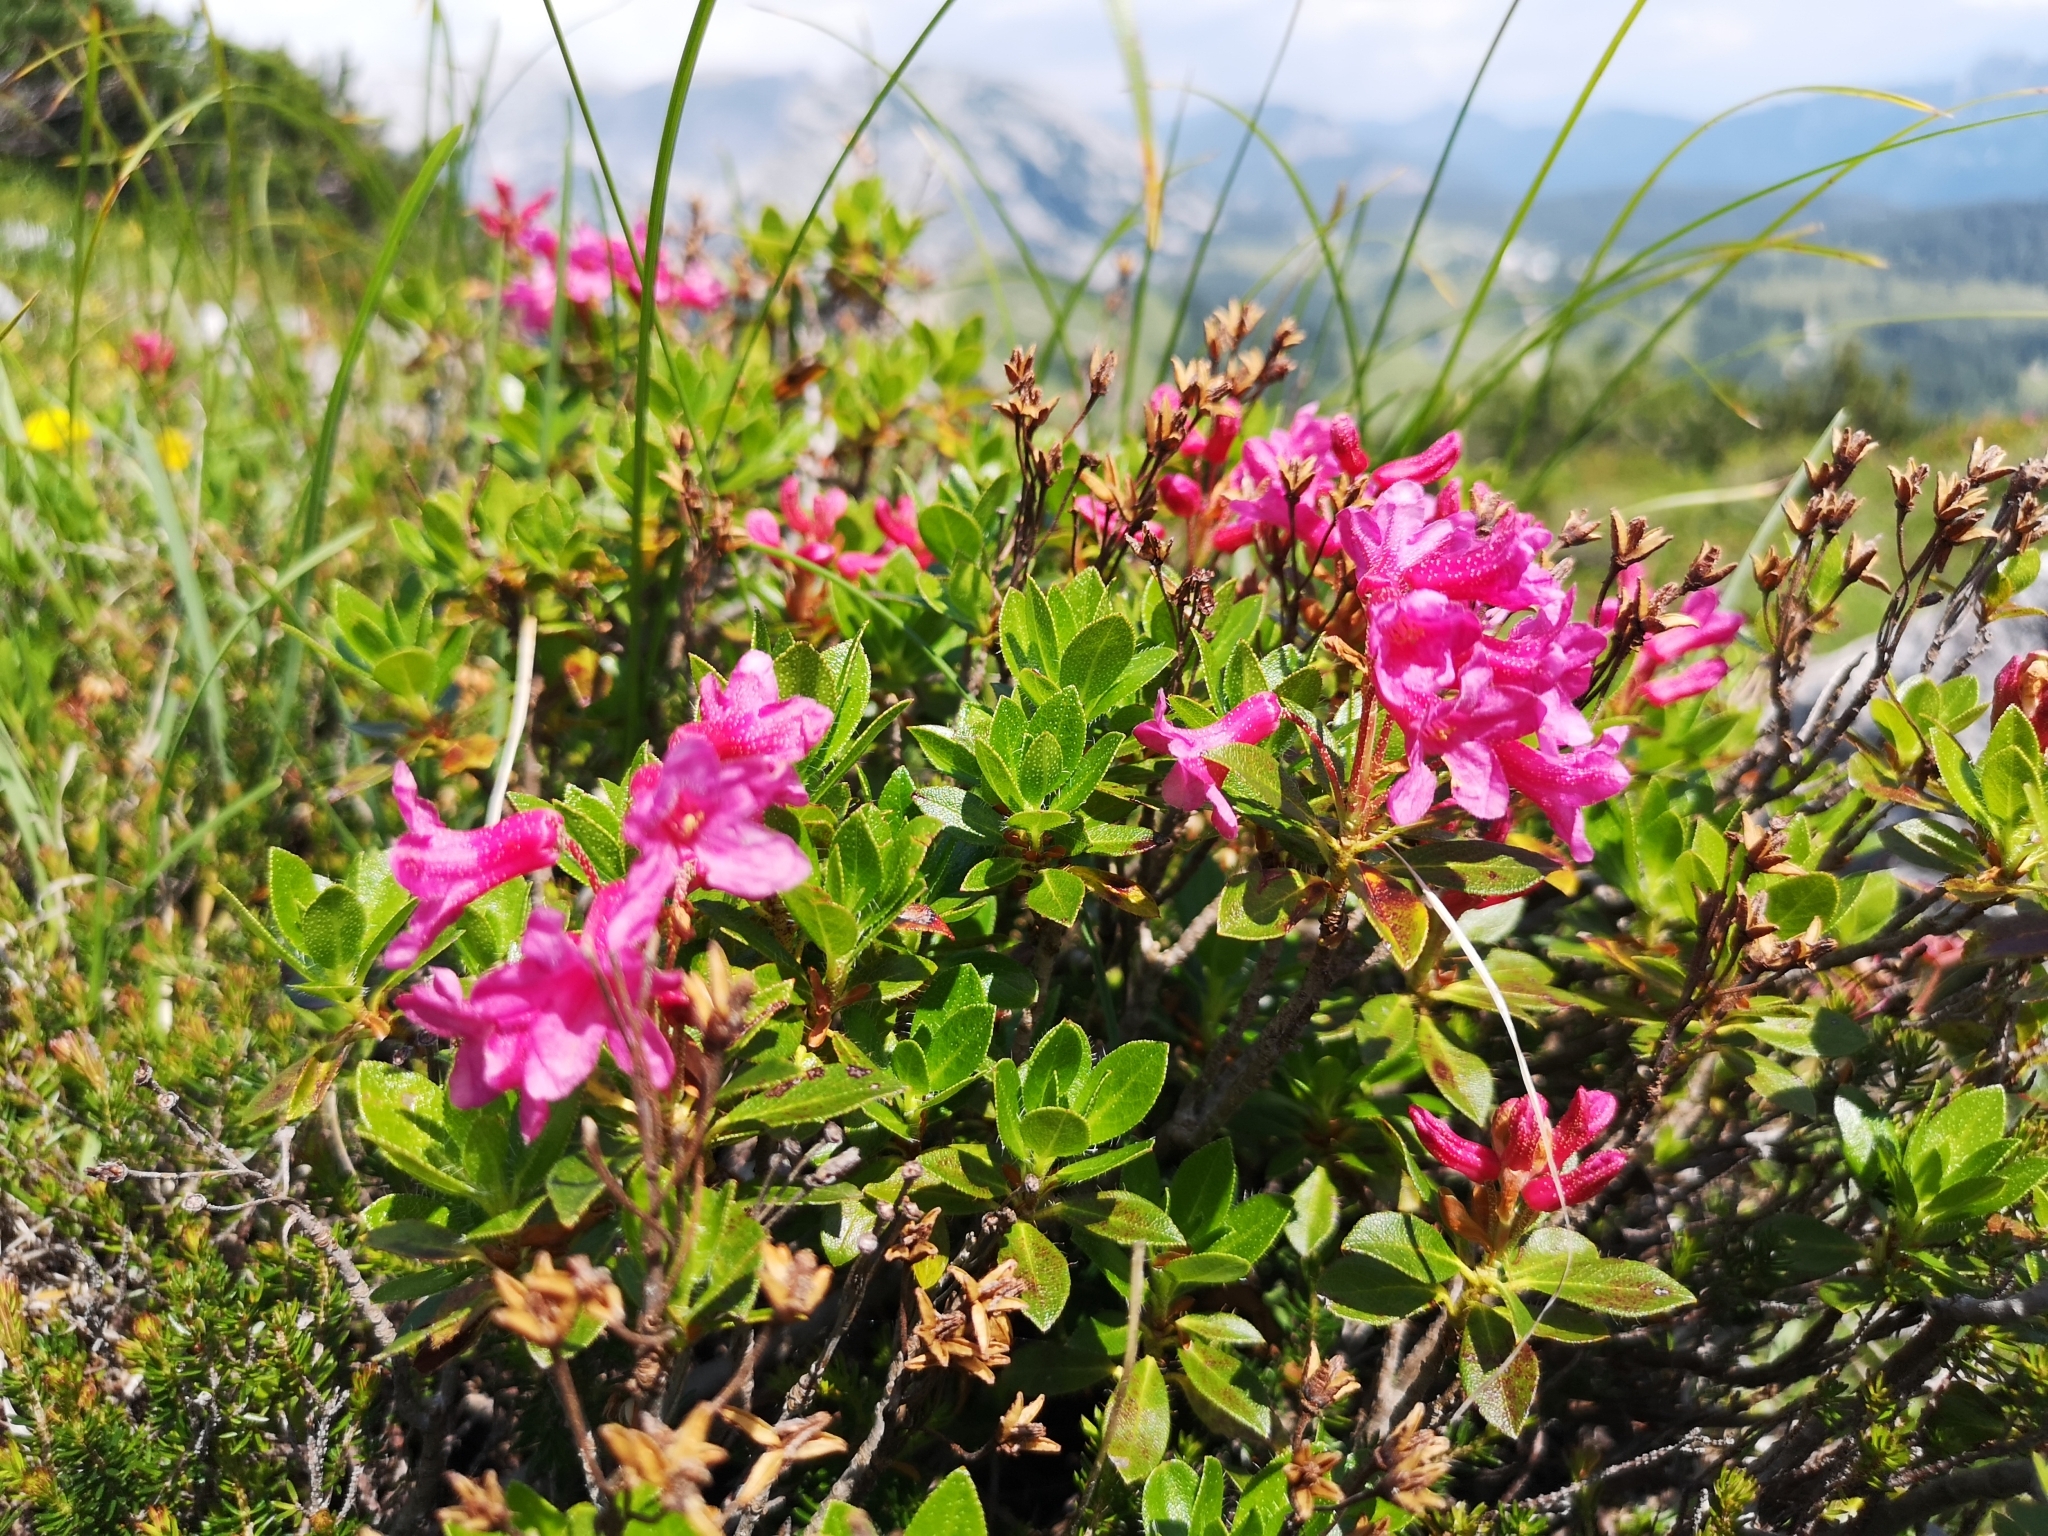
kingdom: Plantae
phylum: Tracheophyta
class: Magnoliopsida
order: Ericales
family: Ericaceae
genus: Rhododendron
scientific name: Rhododendron hirsutum
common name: Hairy alpenrose
